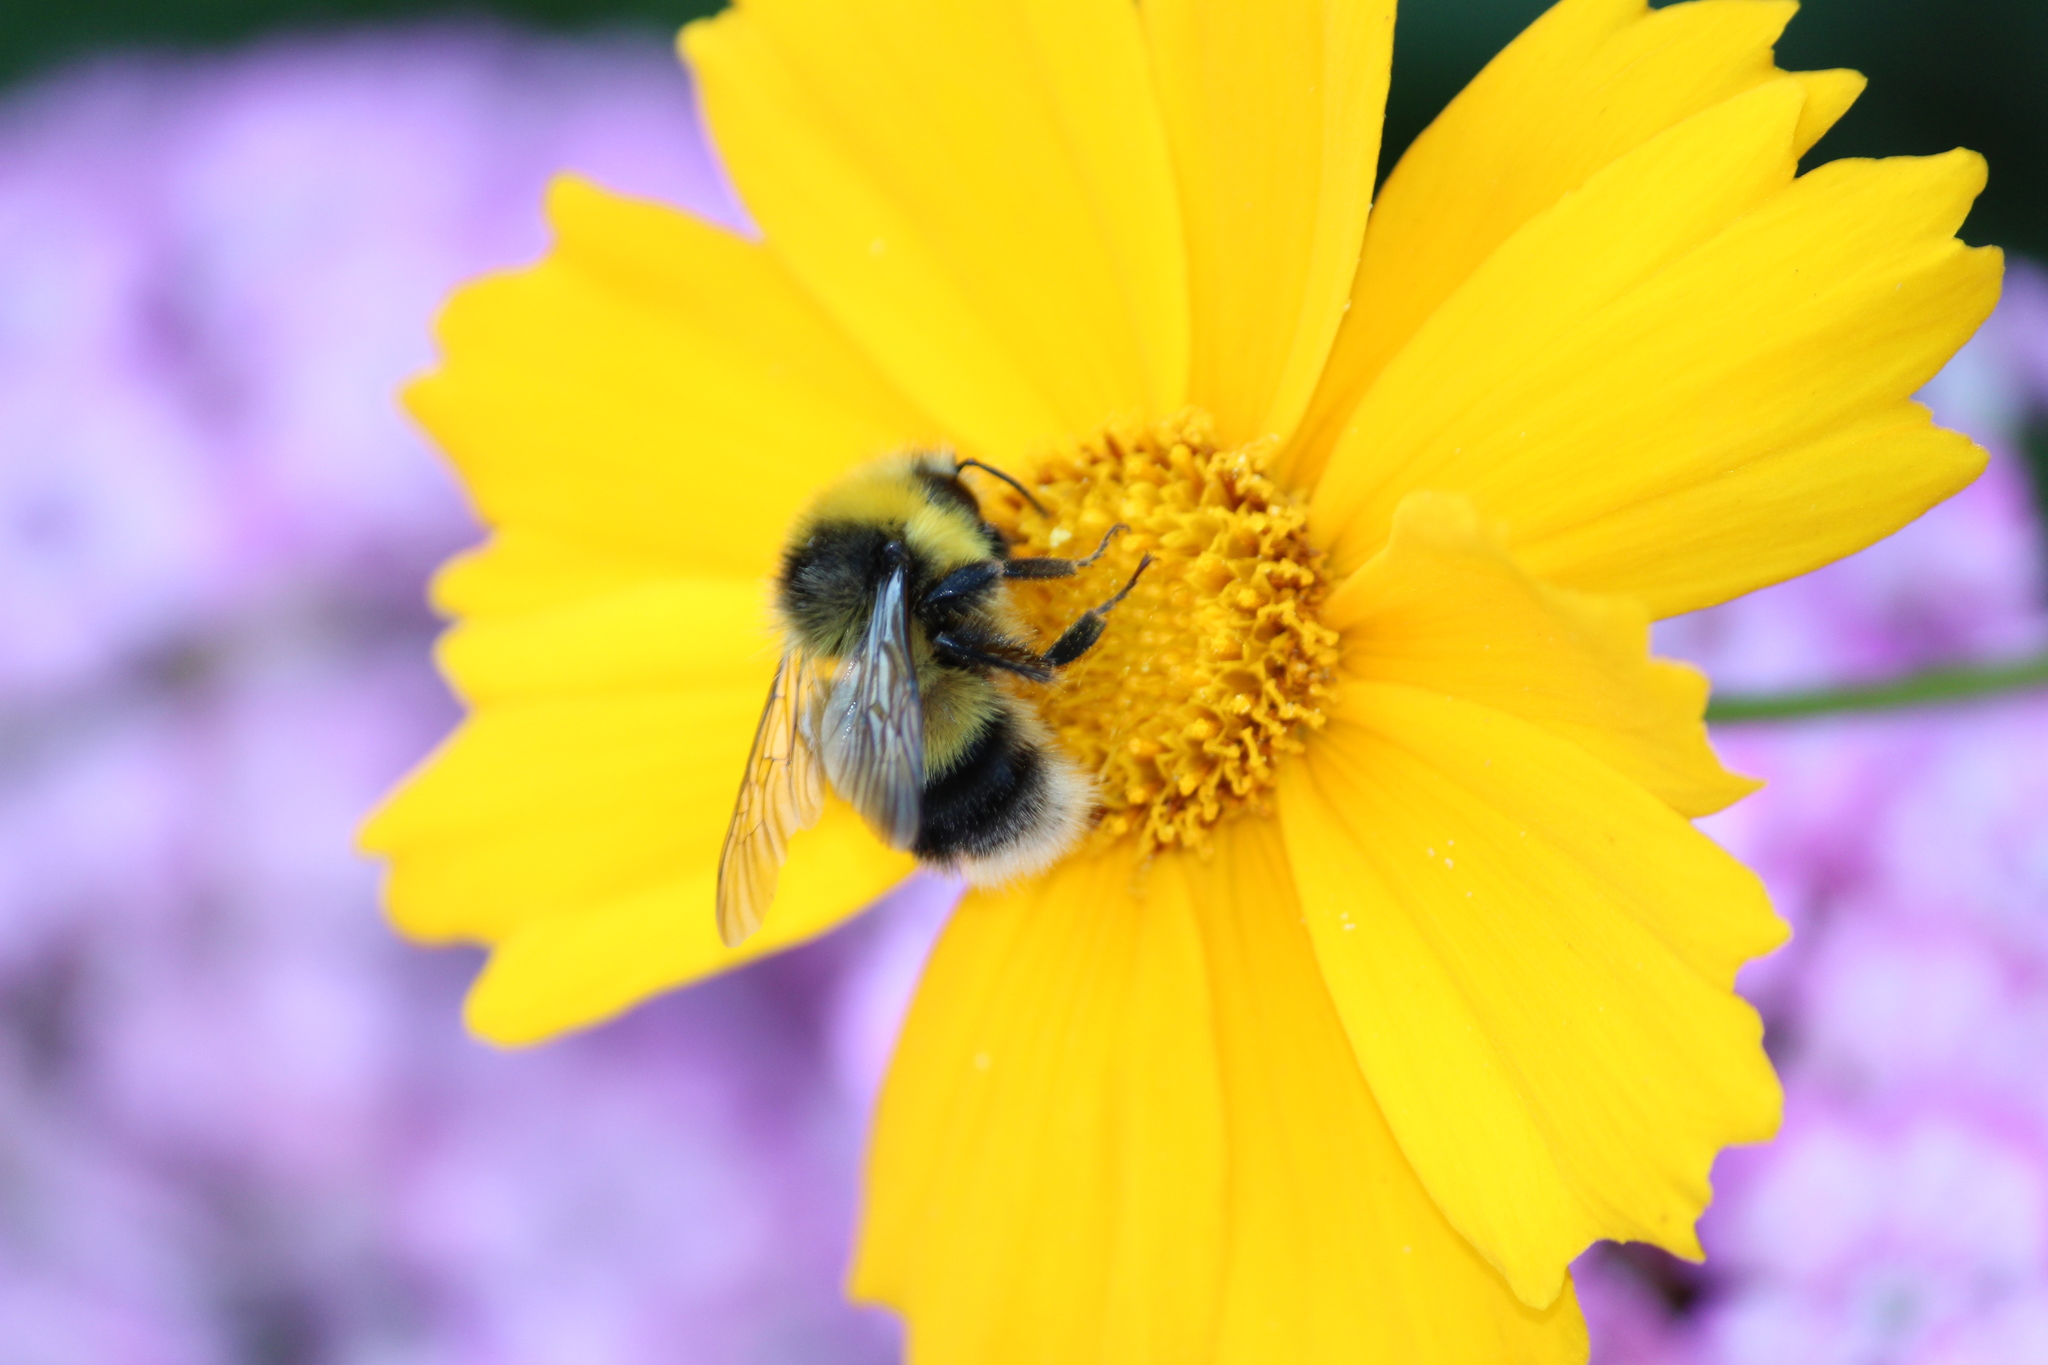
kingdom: Animalia
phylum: Arthropoda
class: Insecta
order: Hymenoptera
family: Apidae
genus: Bombus
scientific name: Bombus lucorum
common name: White-tailed bumblebee
